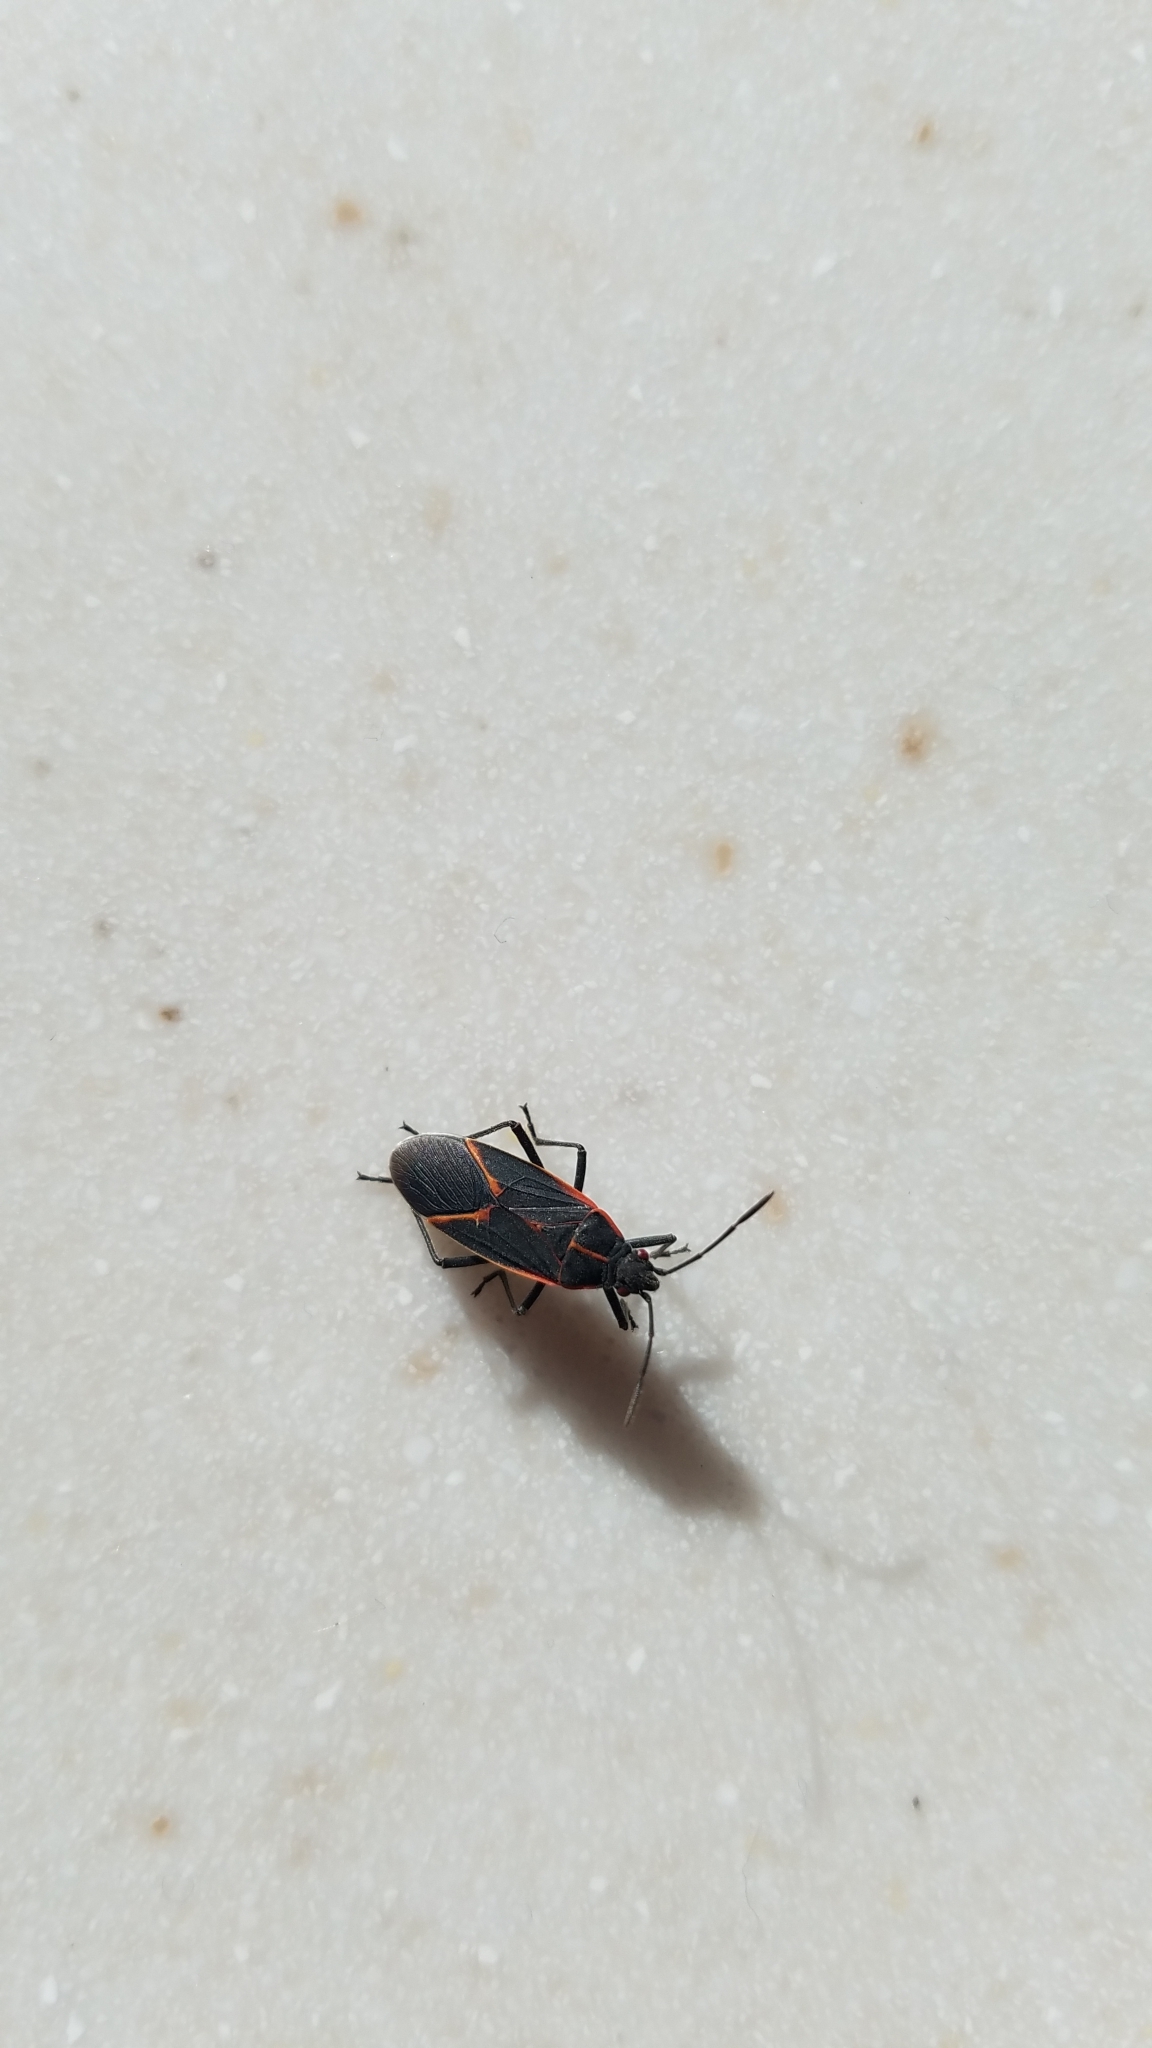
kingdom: Animalia
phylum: Arthropoda
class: Insecta
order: Hemiptera
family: Rhopalidae
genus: Boisea
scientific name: Boisea trivittata
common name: Boxelder bug
